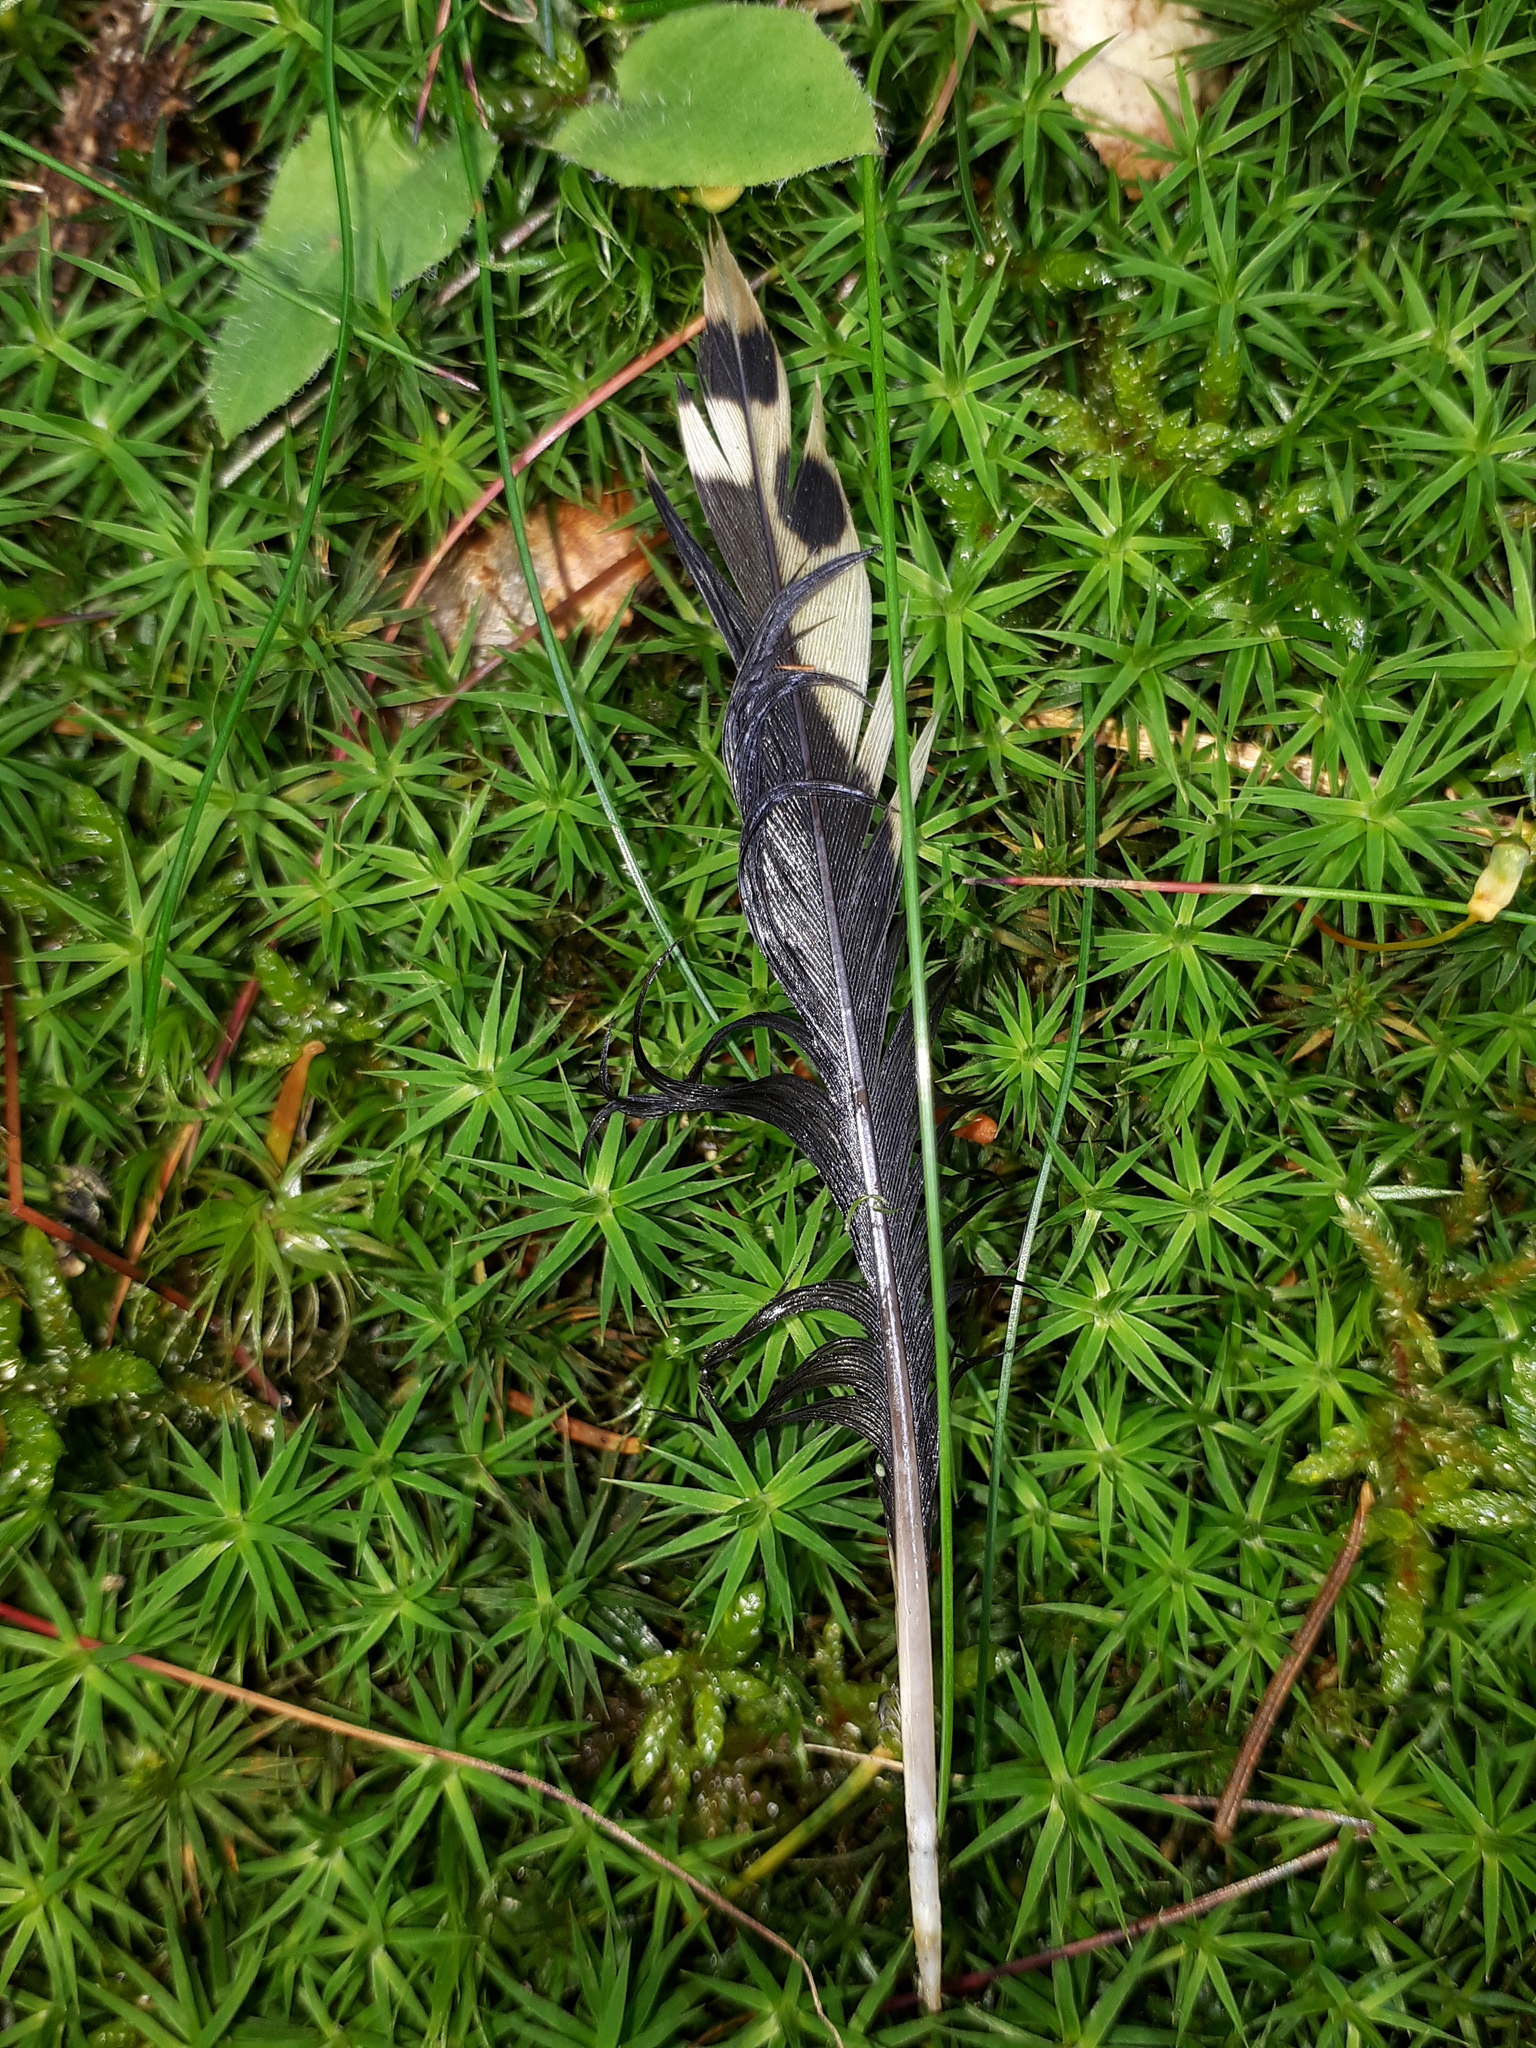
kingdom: Animalia
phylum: Chordata
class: Aves
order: Piciformes
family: Picidae
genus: Dendrocopos
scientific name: Dendrocopos major
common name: Great spotted woodpecker
